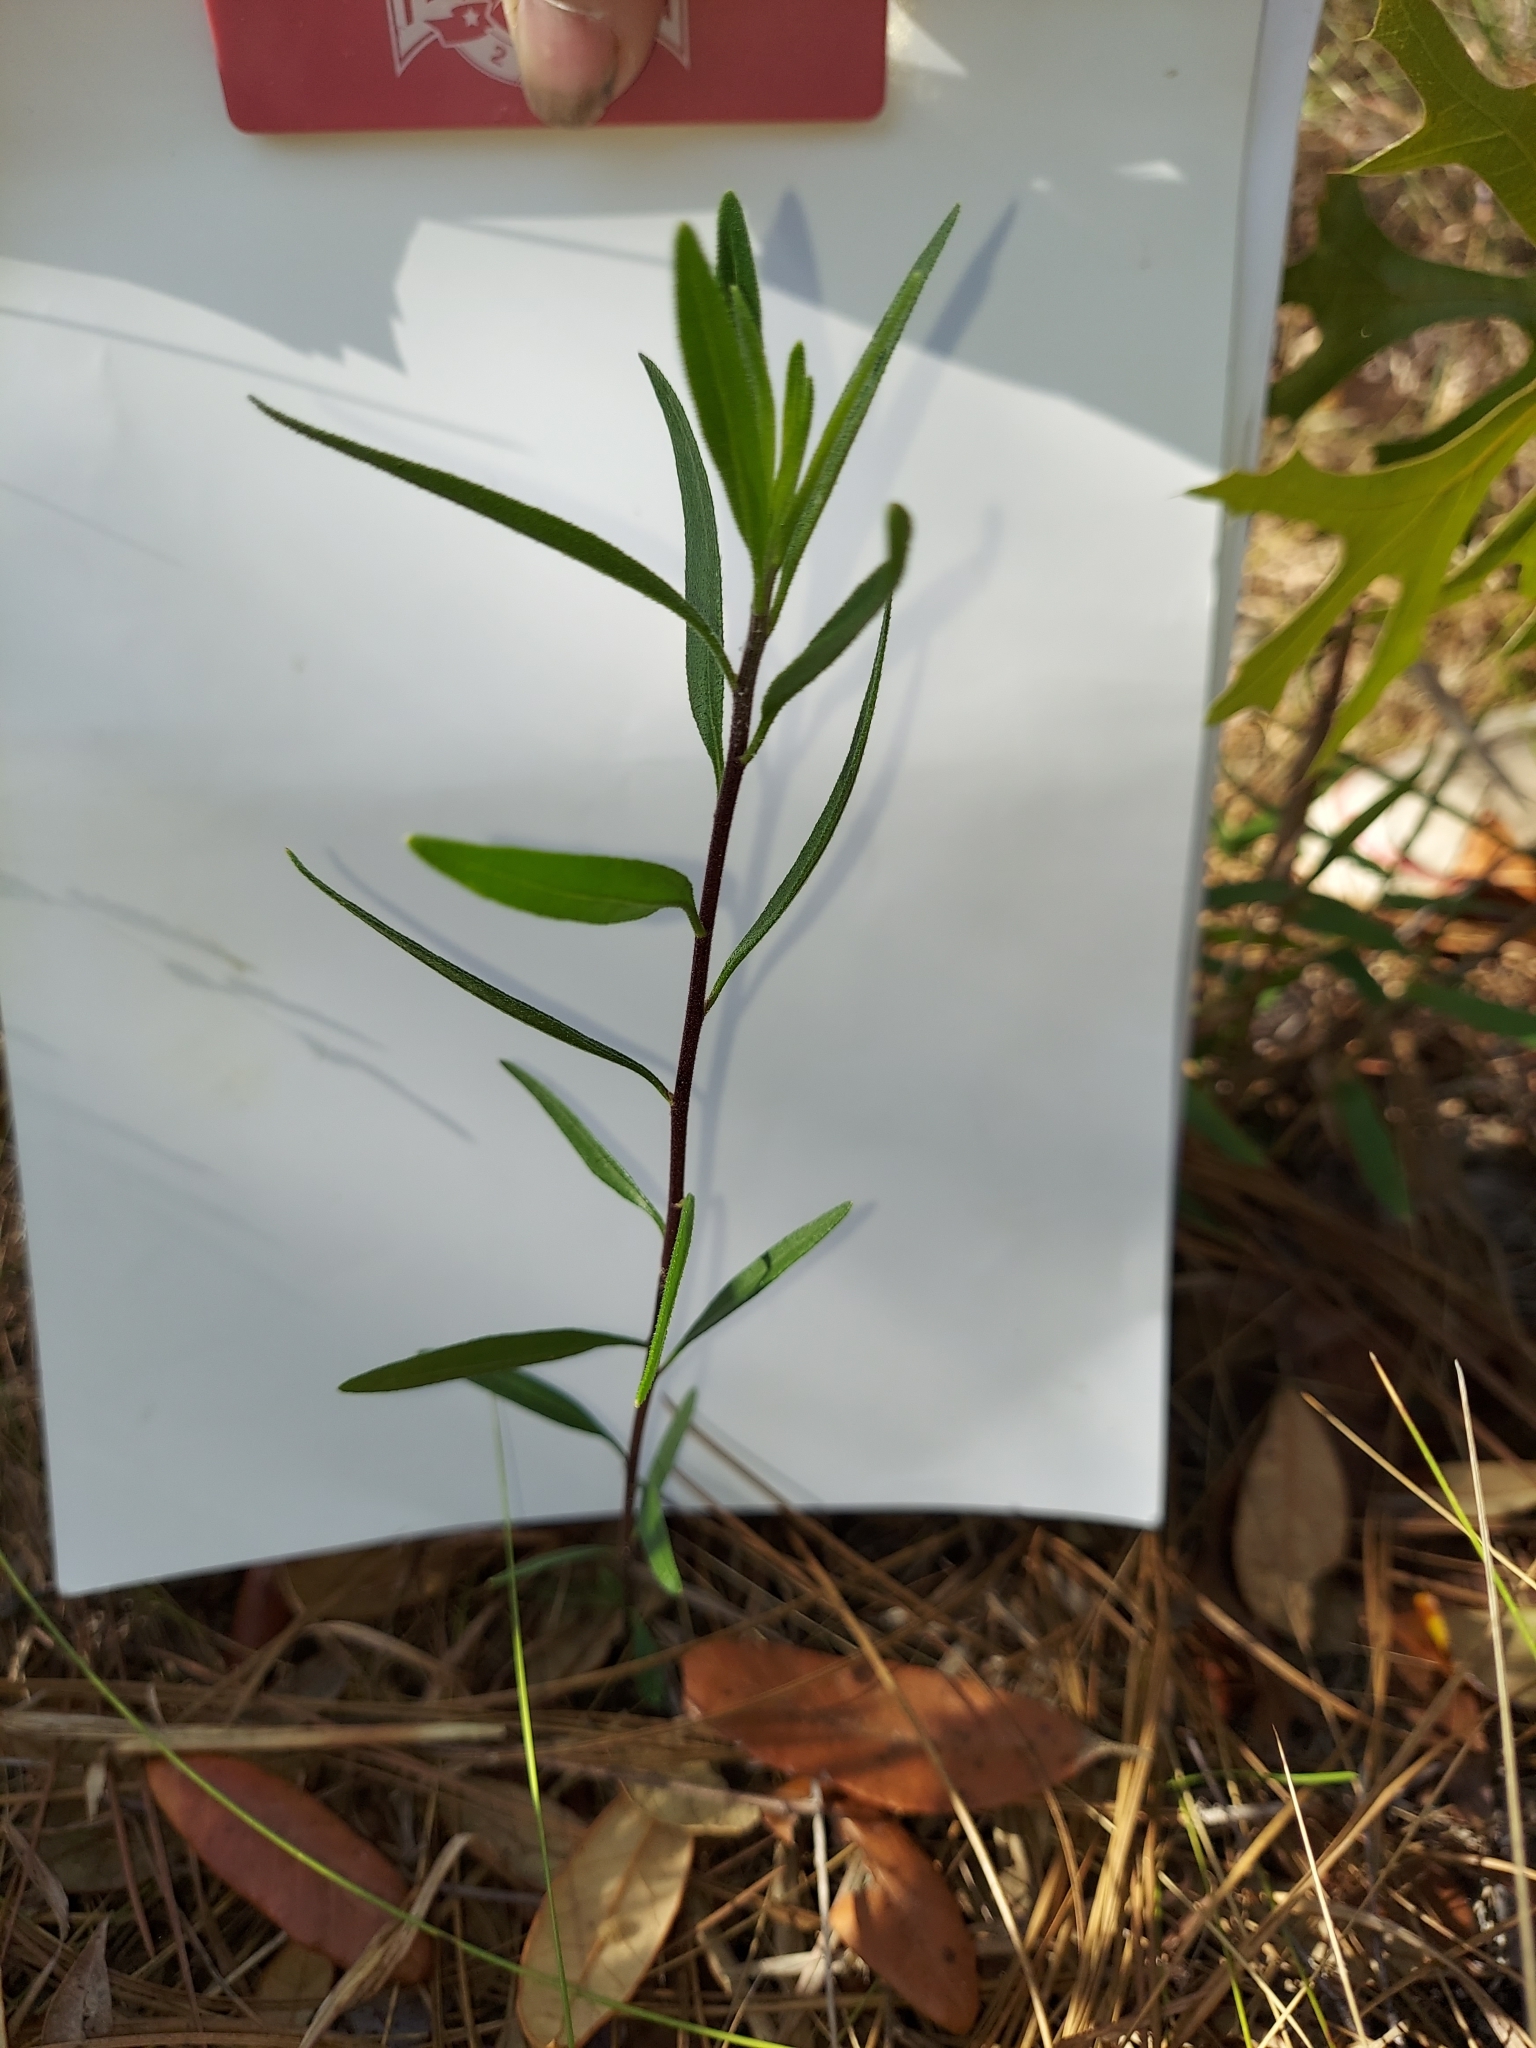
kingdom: Plantae
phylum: Tracheophyta
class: Magnoliopsida
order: Asterales
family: Asteraceae
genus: Palafoxia
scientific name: Palafoxia integrifolia
